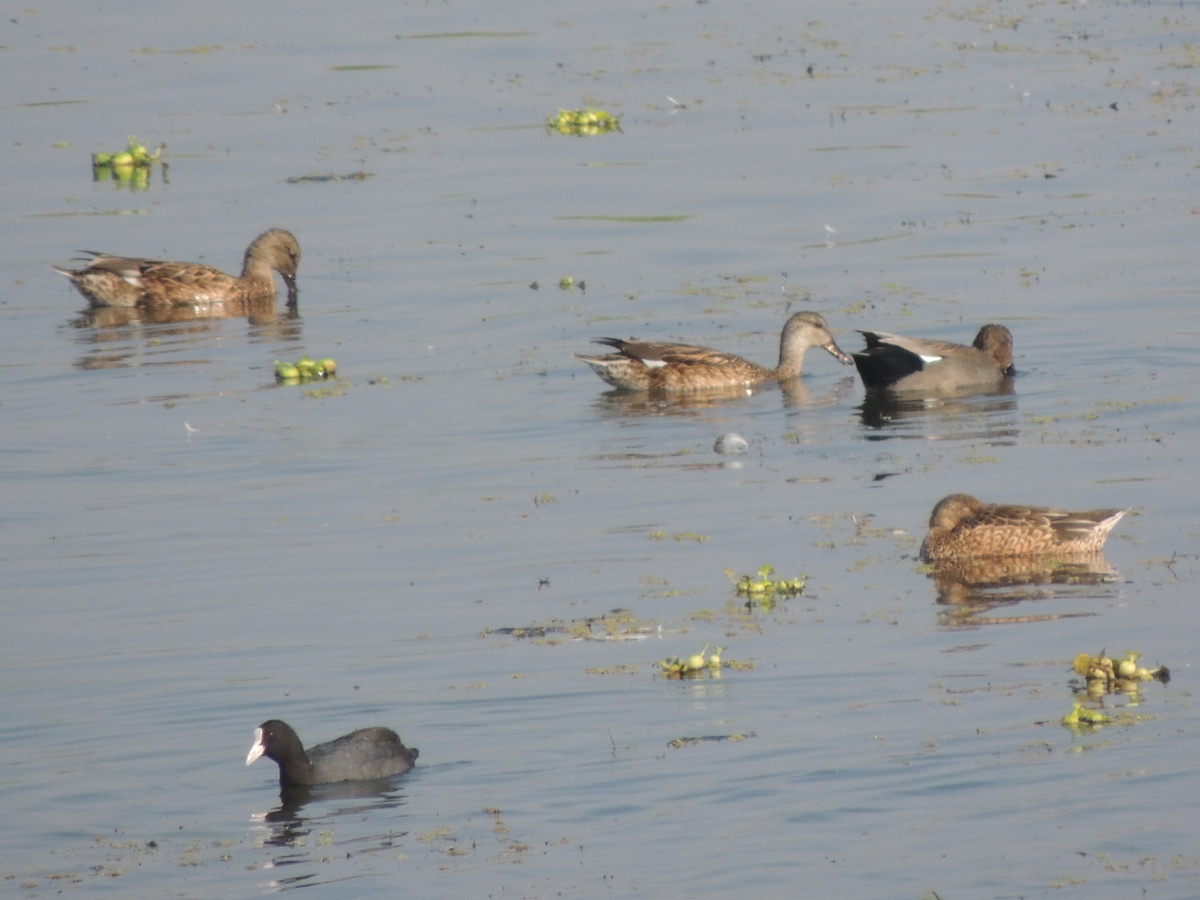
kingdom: Animalia
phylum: Chordata
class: Aves
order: Anseriformes
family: Anatidae
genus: Mareca
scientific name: Mareca strepera
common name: Gadwall
